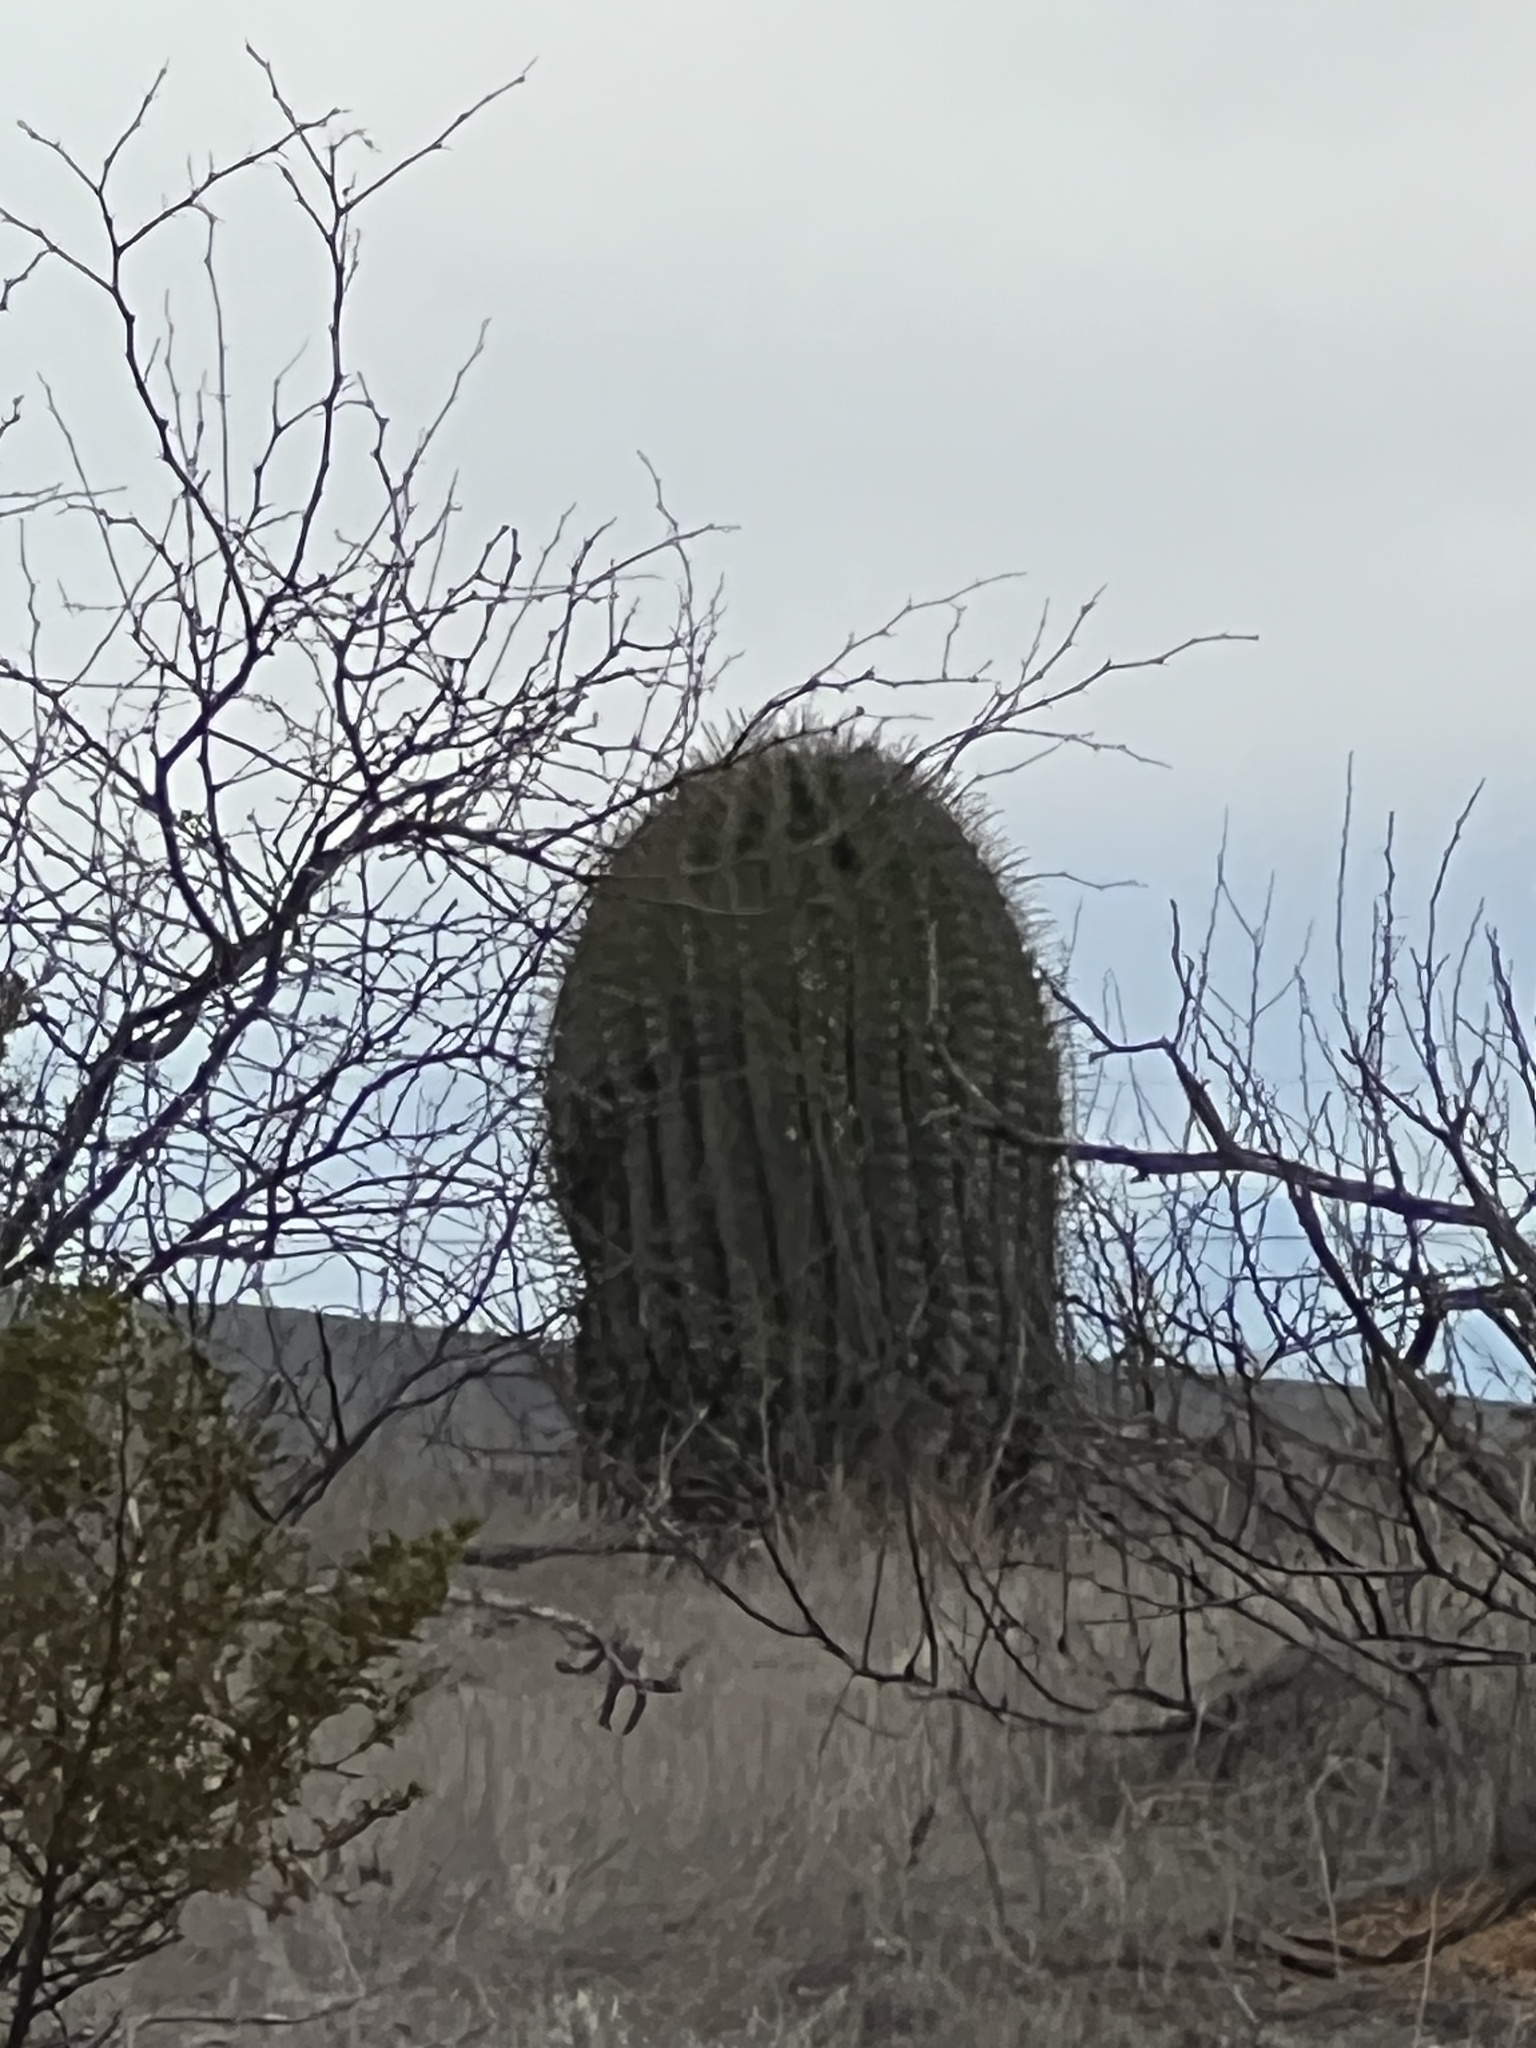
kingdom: Plantae
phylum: Tracheophyta
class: Magnoliopsida
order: Caryophyllales
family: Cactaceae
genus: Ferocactus
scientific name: Ferocactus wislizeni
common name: Candy barrel cactus
